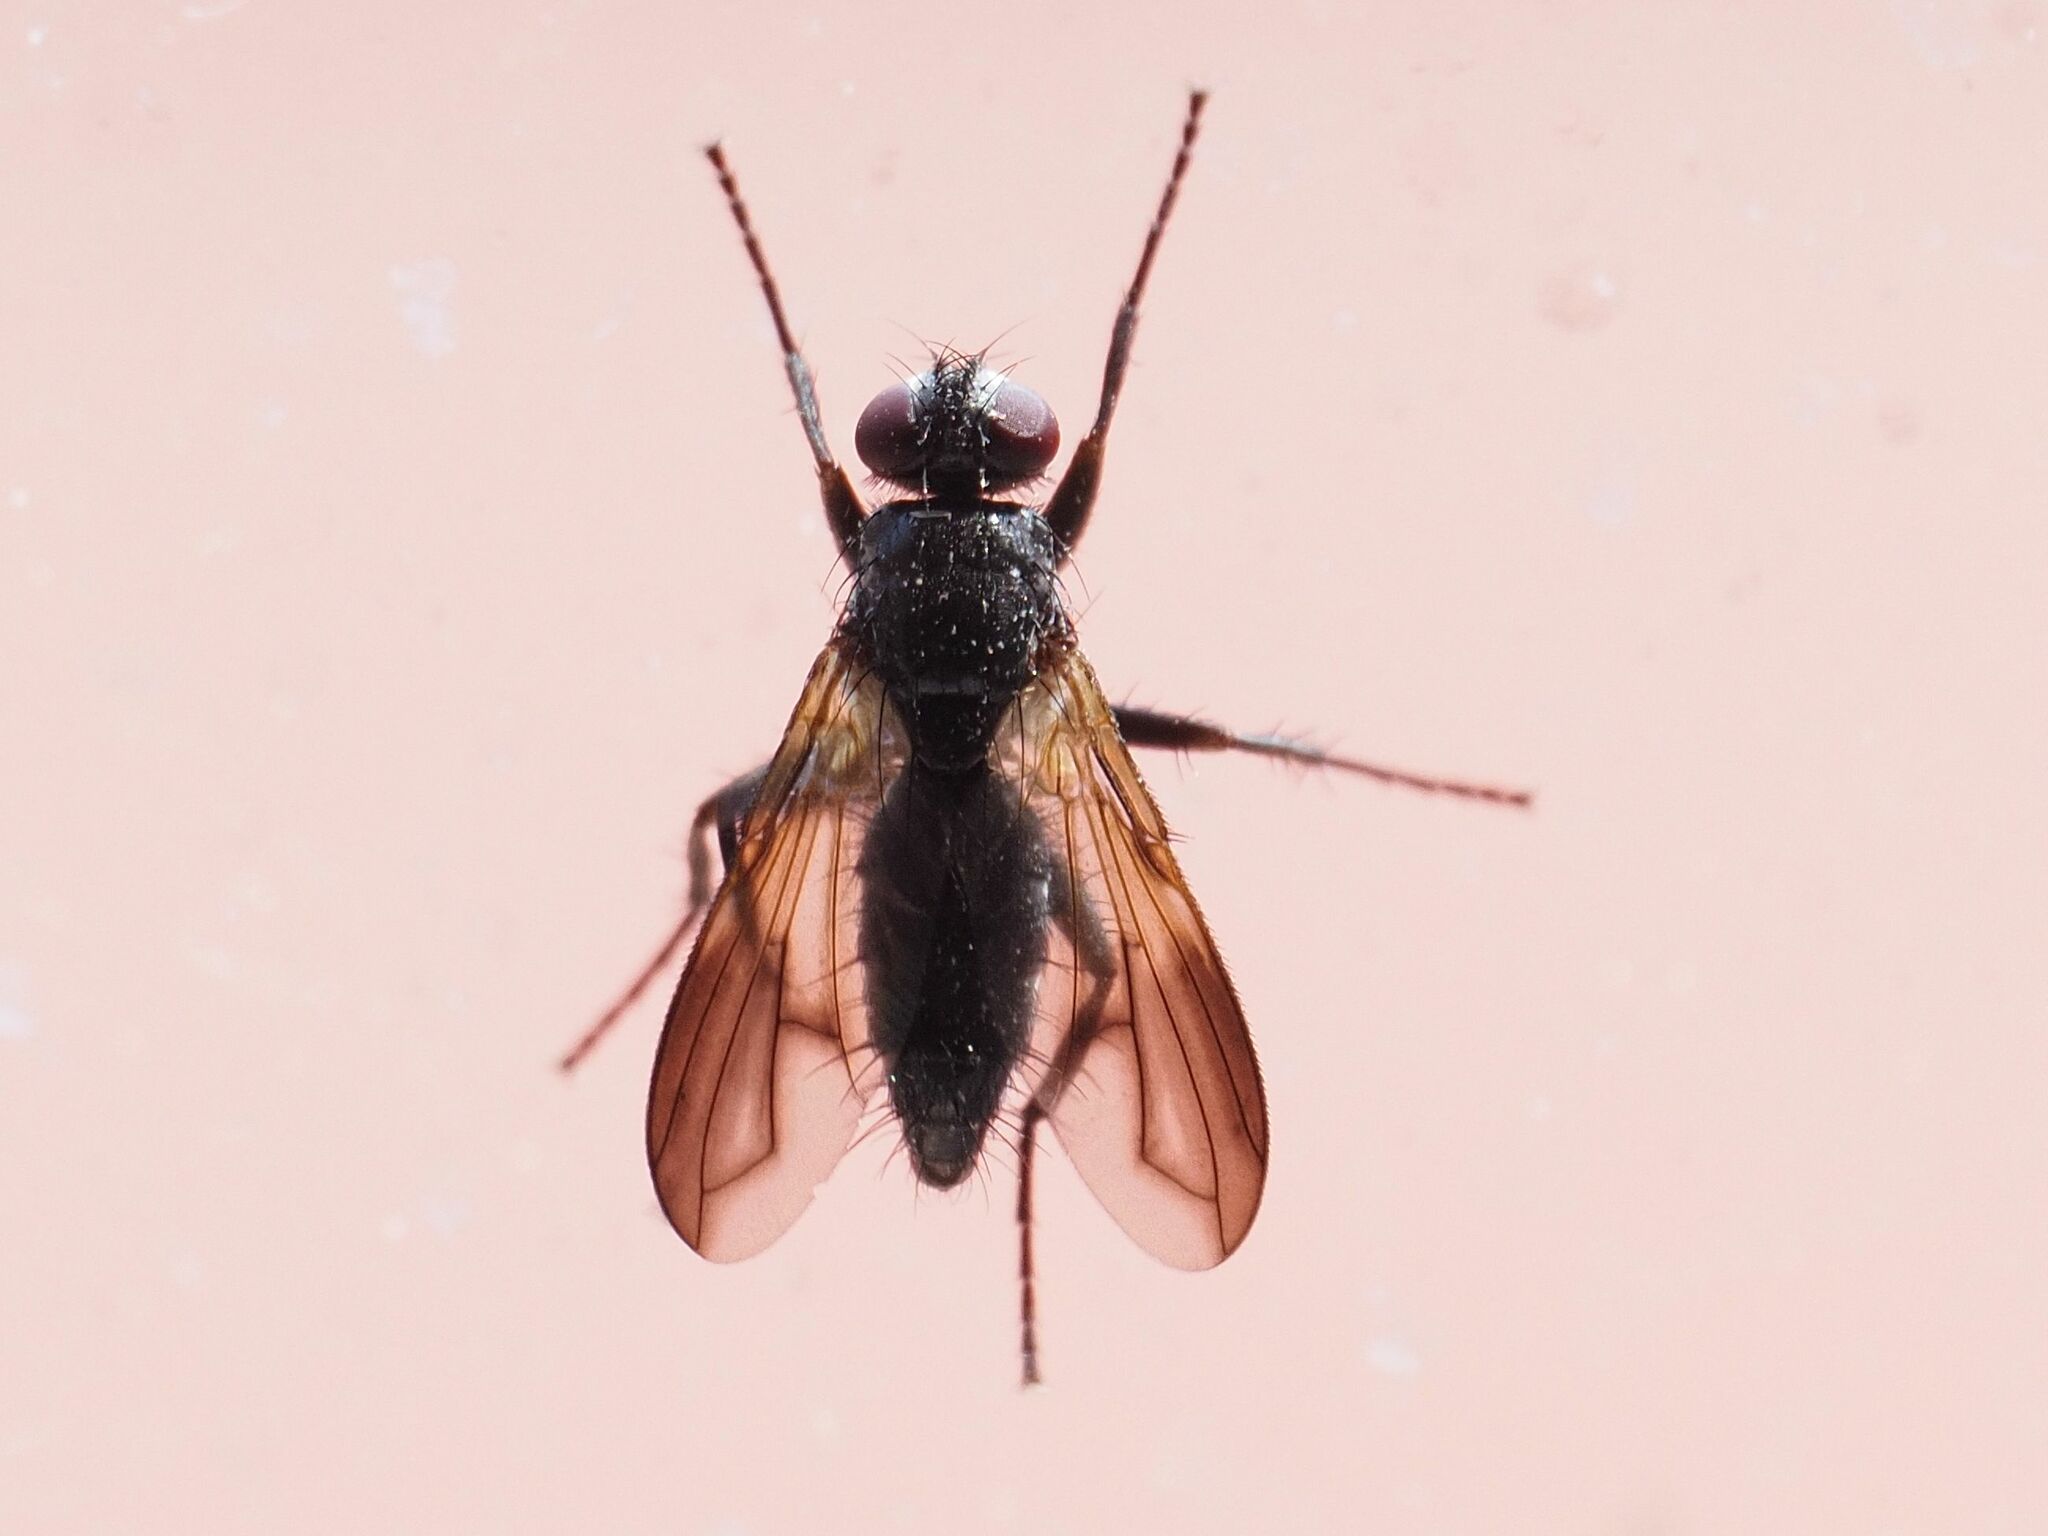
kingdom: Animalia
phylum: Arthropoda
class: Insecta
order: Diptera
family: Calliphoridae
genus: Paykullia
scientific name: Paykullia maculata
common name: Picture-winged woodlouse-fly
